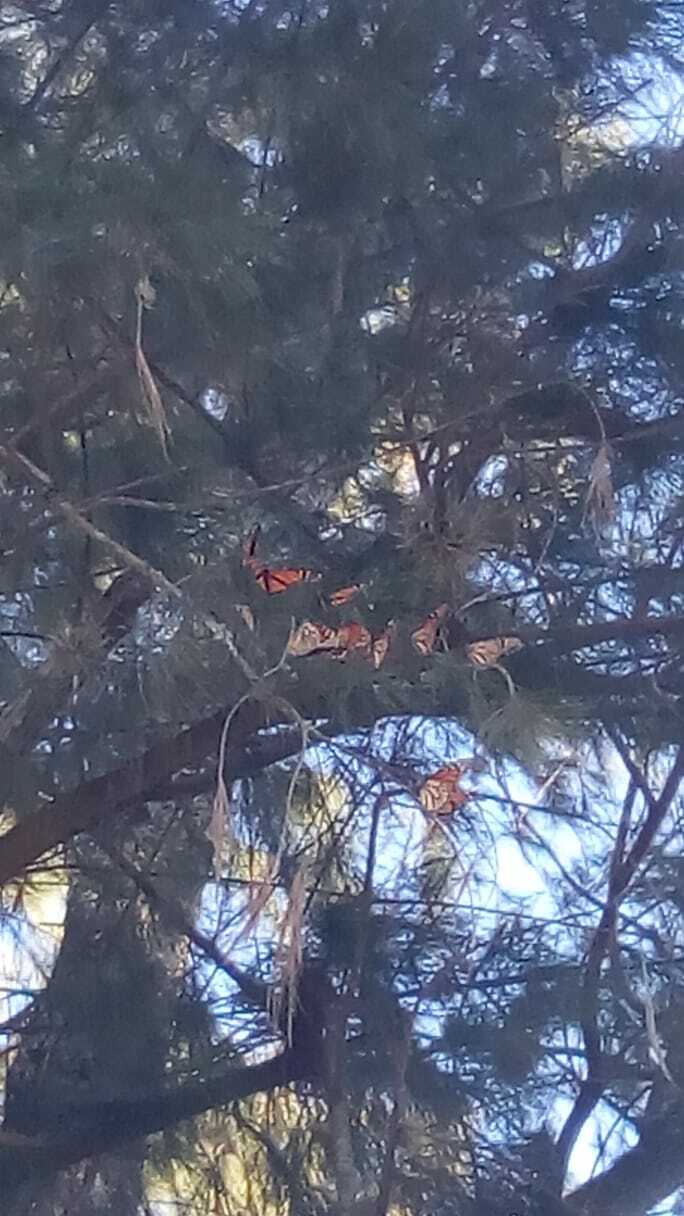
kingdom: Animalia
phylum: Arthropoda
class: Insecta
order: Lepidoptera
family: Nymphalidae
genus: Danaus
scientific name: Danaus plexippus
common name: Monarch
